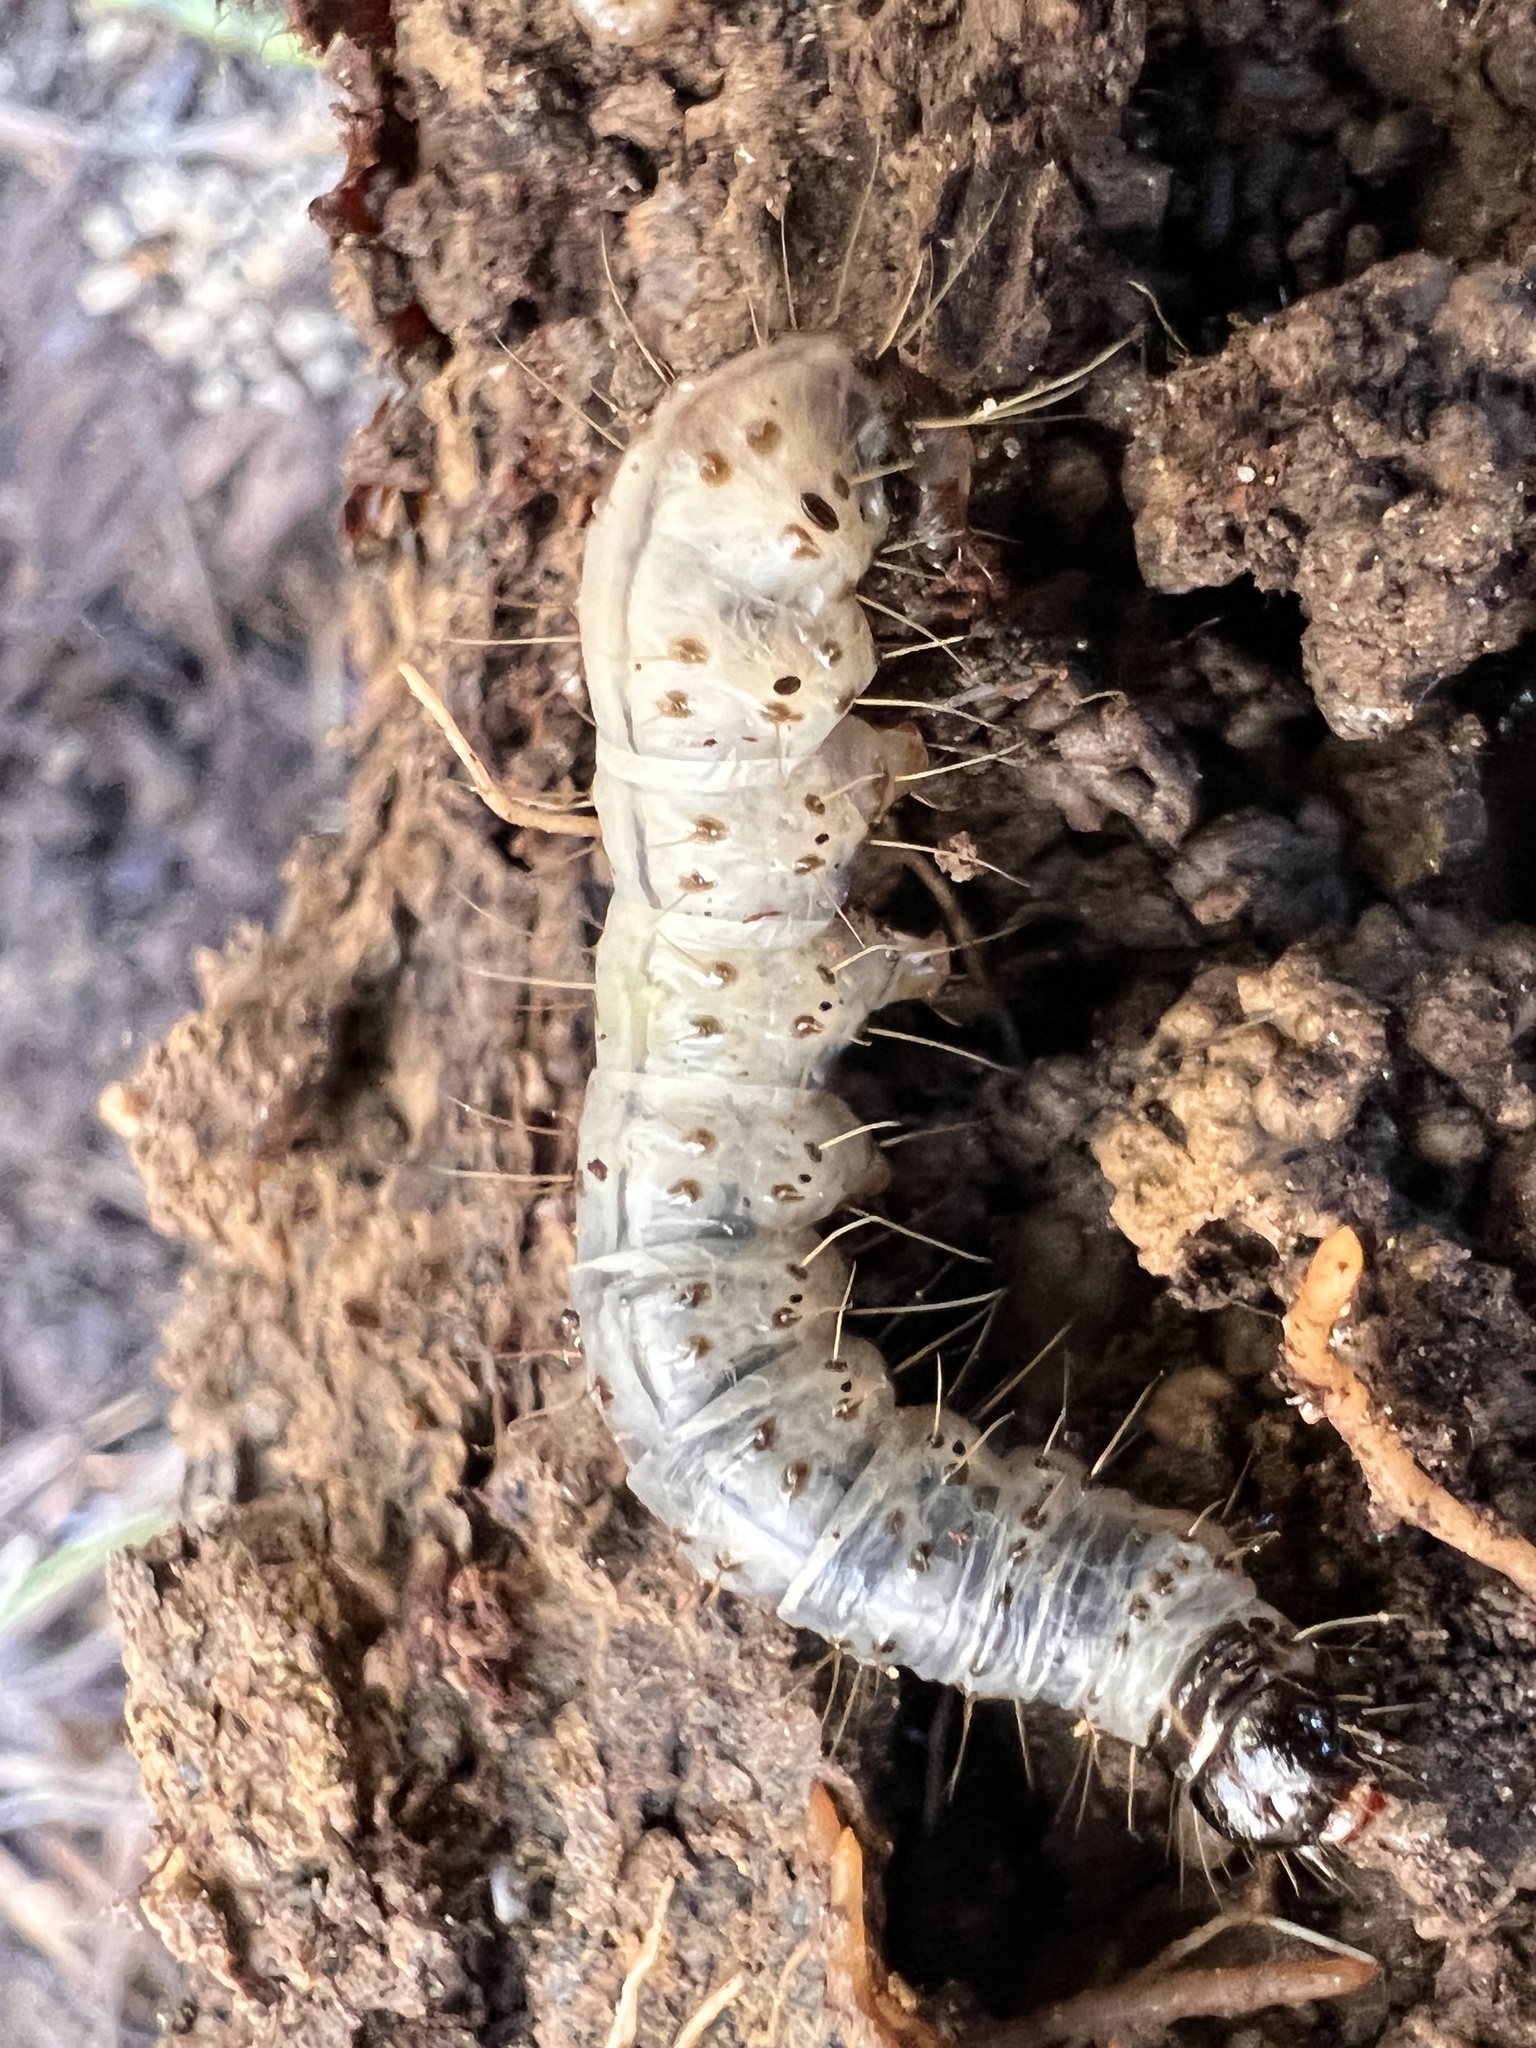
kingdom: Animalia
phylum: Arthropoda
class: Insecta
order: Lepidoptera
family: Erebidae
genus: Scolecocampa
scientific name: Scolecocampa liburna
